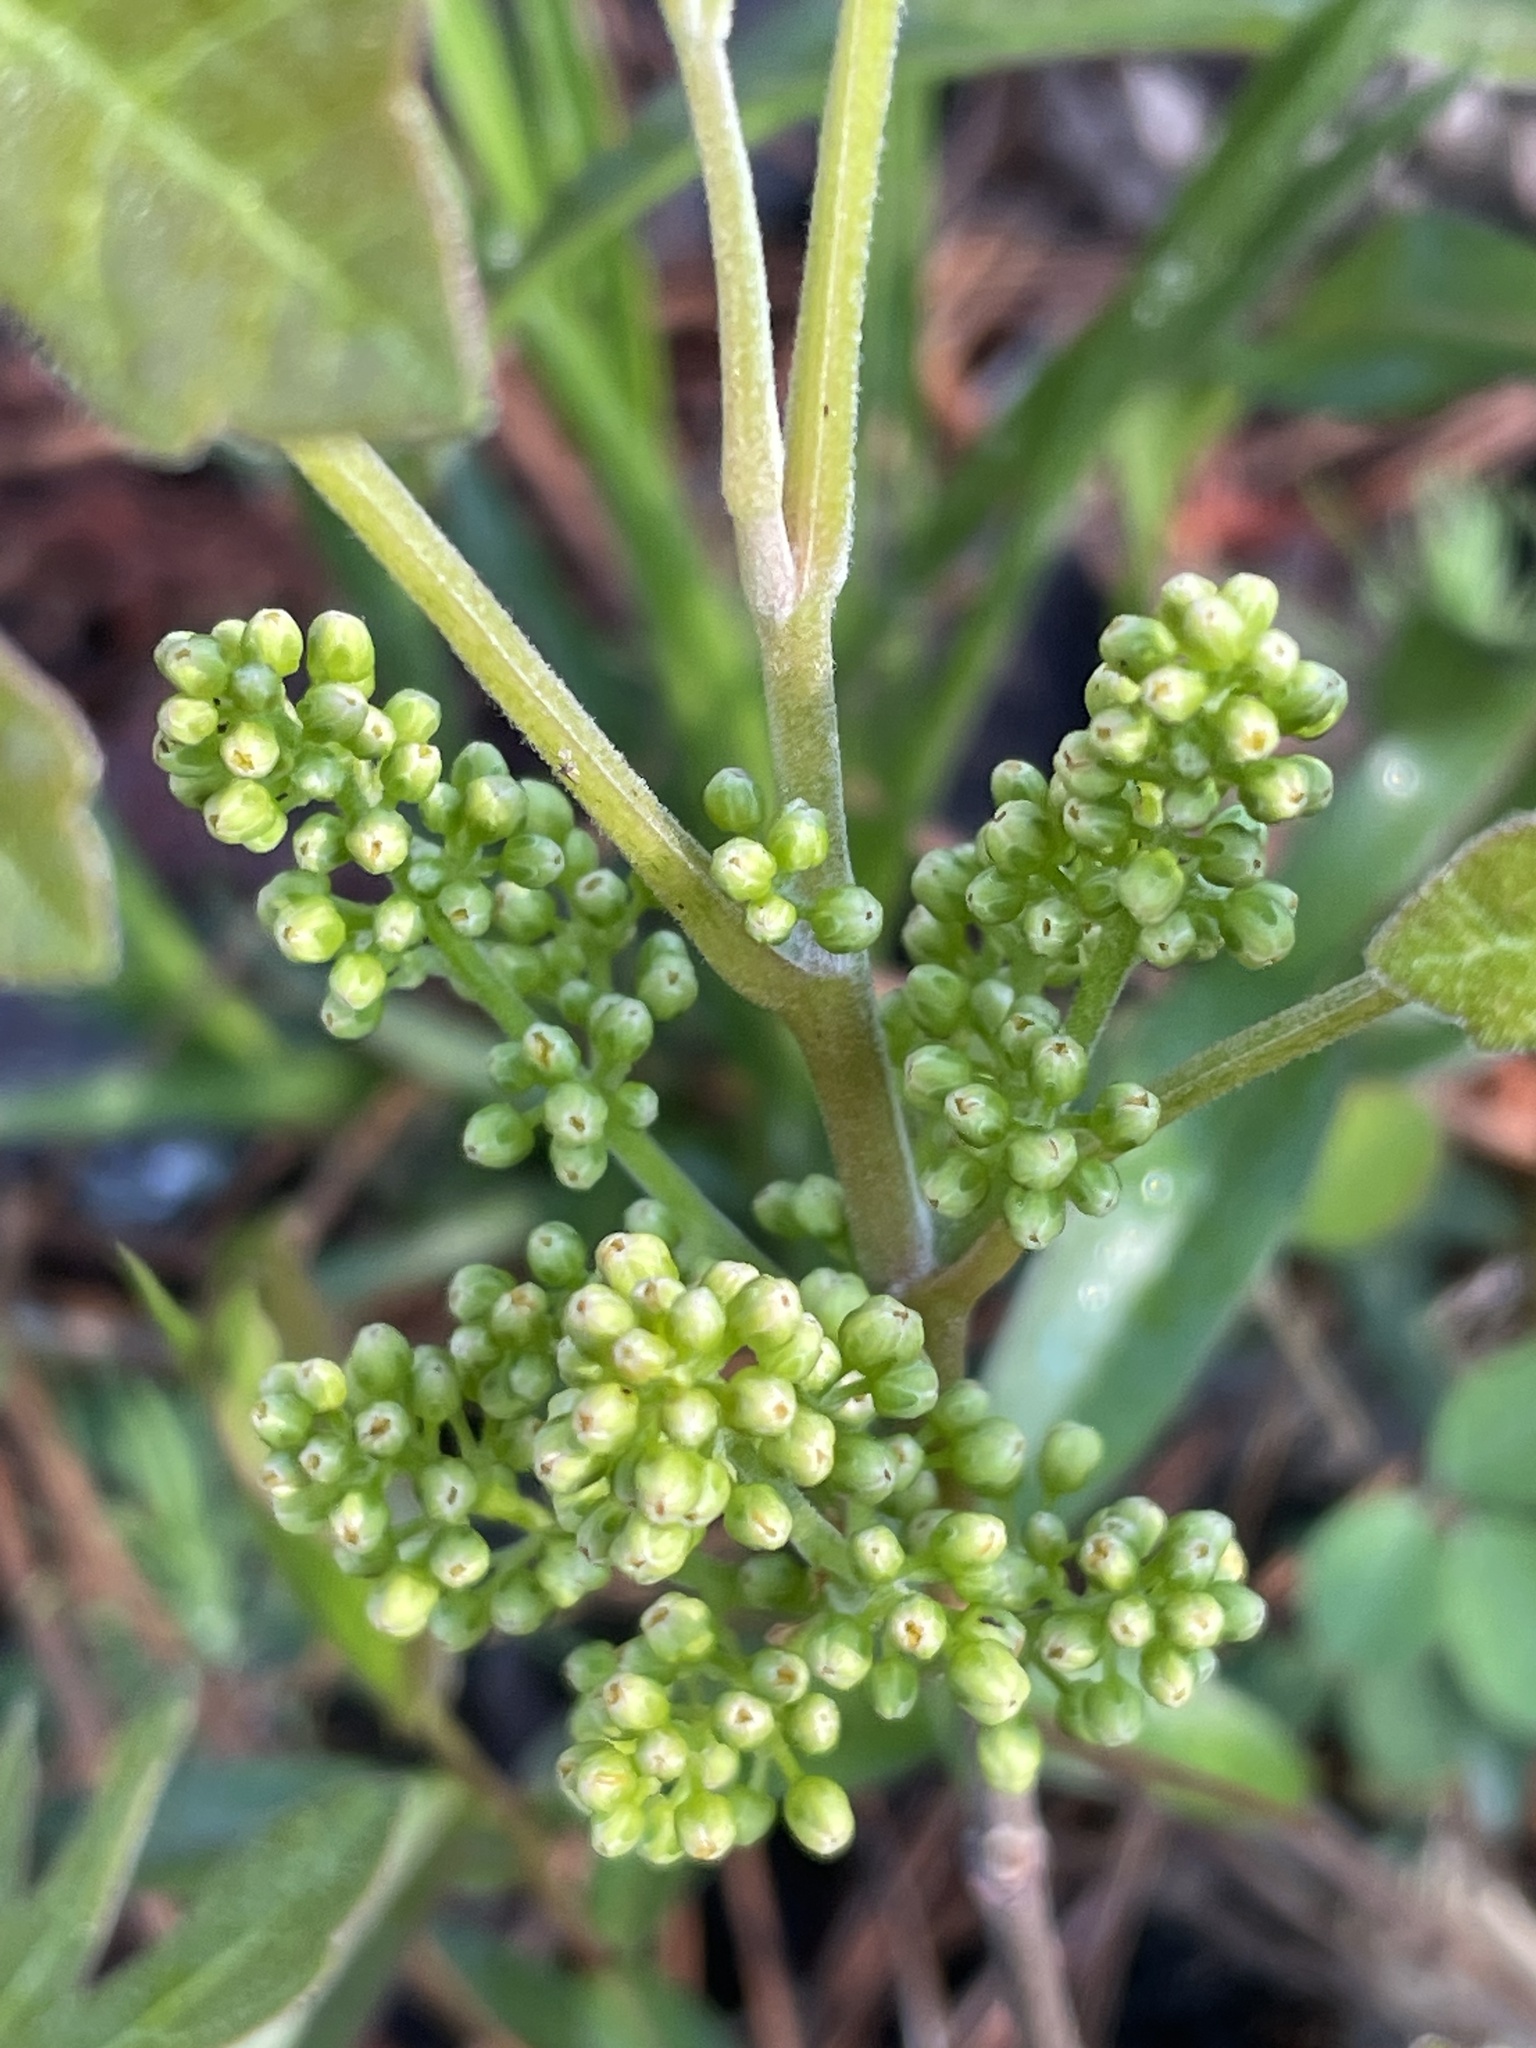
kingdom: Plantae
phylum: Tracheophyta
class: Magnoliopsida
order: Sapindales
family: Anacardiaceae
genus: Toxicodendron
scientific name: Toxicodendron pubescens
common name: Eastern poison-oak
